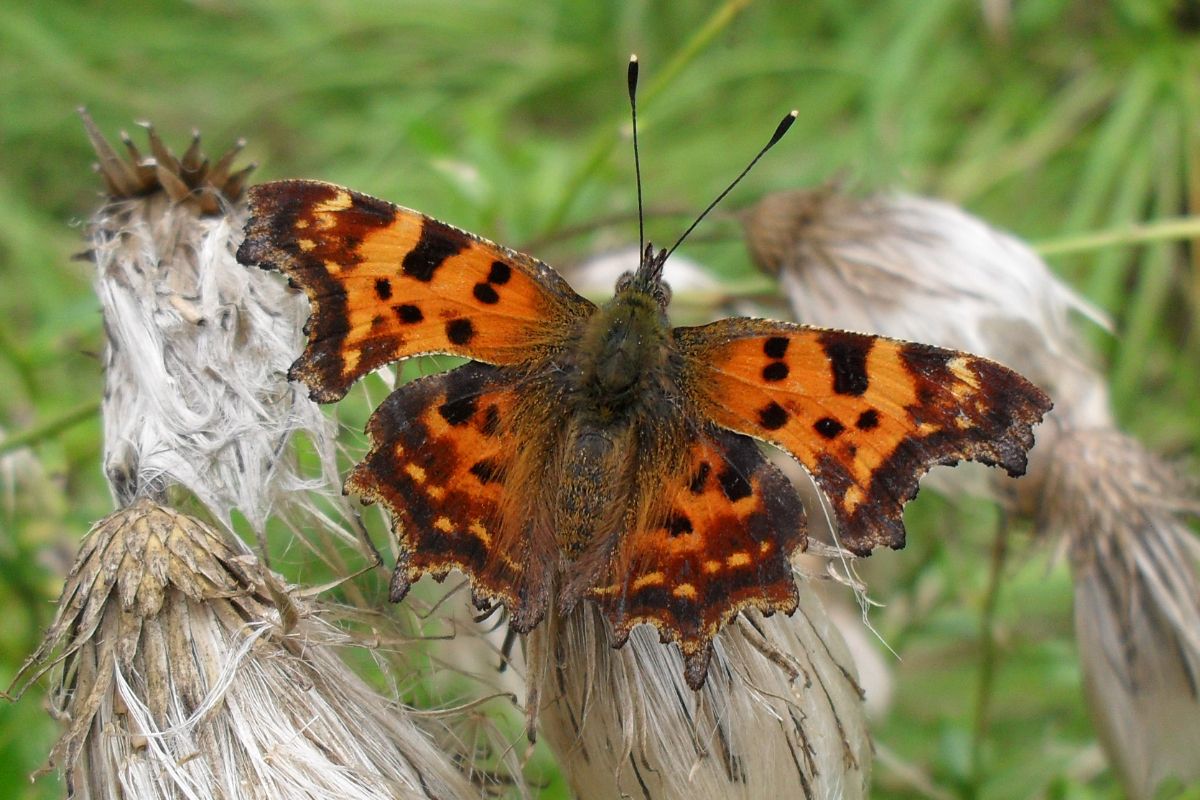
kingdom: Animalia
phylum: Arthropoda
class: Insecta
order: Lepidoptera
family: Nymphalidae
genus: Polygonia
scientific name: Polygonia c-album
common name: Comma
